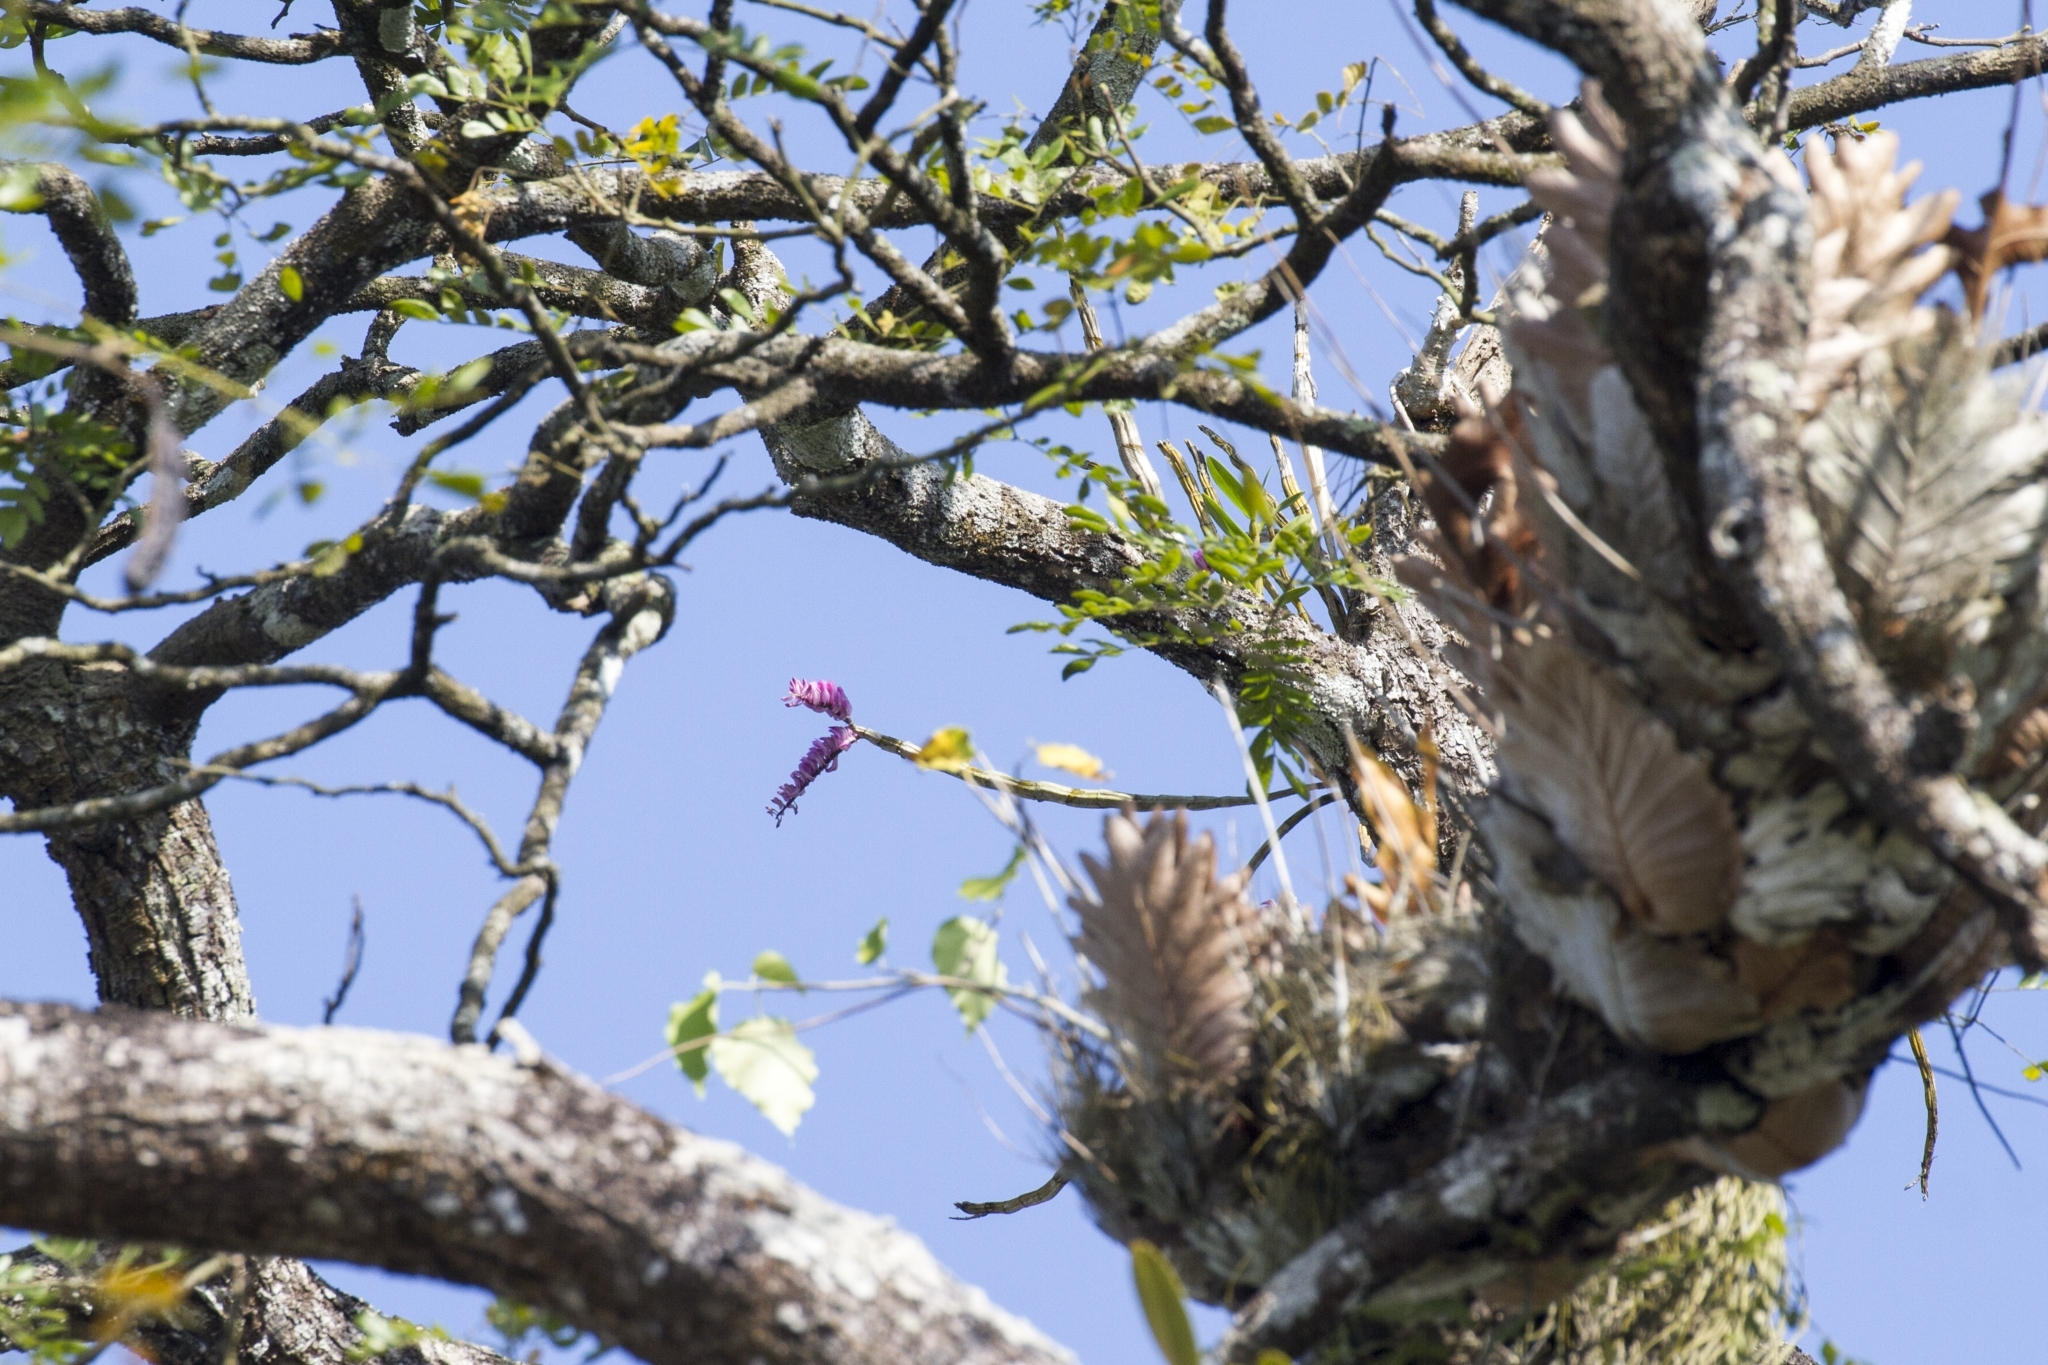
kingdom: Plantae
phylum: Tracheophyta
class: Liliopsida
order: Asparagales
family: Orchidaceae
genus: Dendrobium
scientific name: Dendrobium secundum
